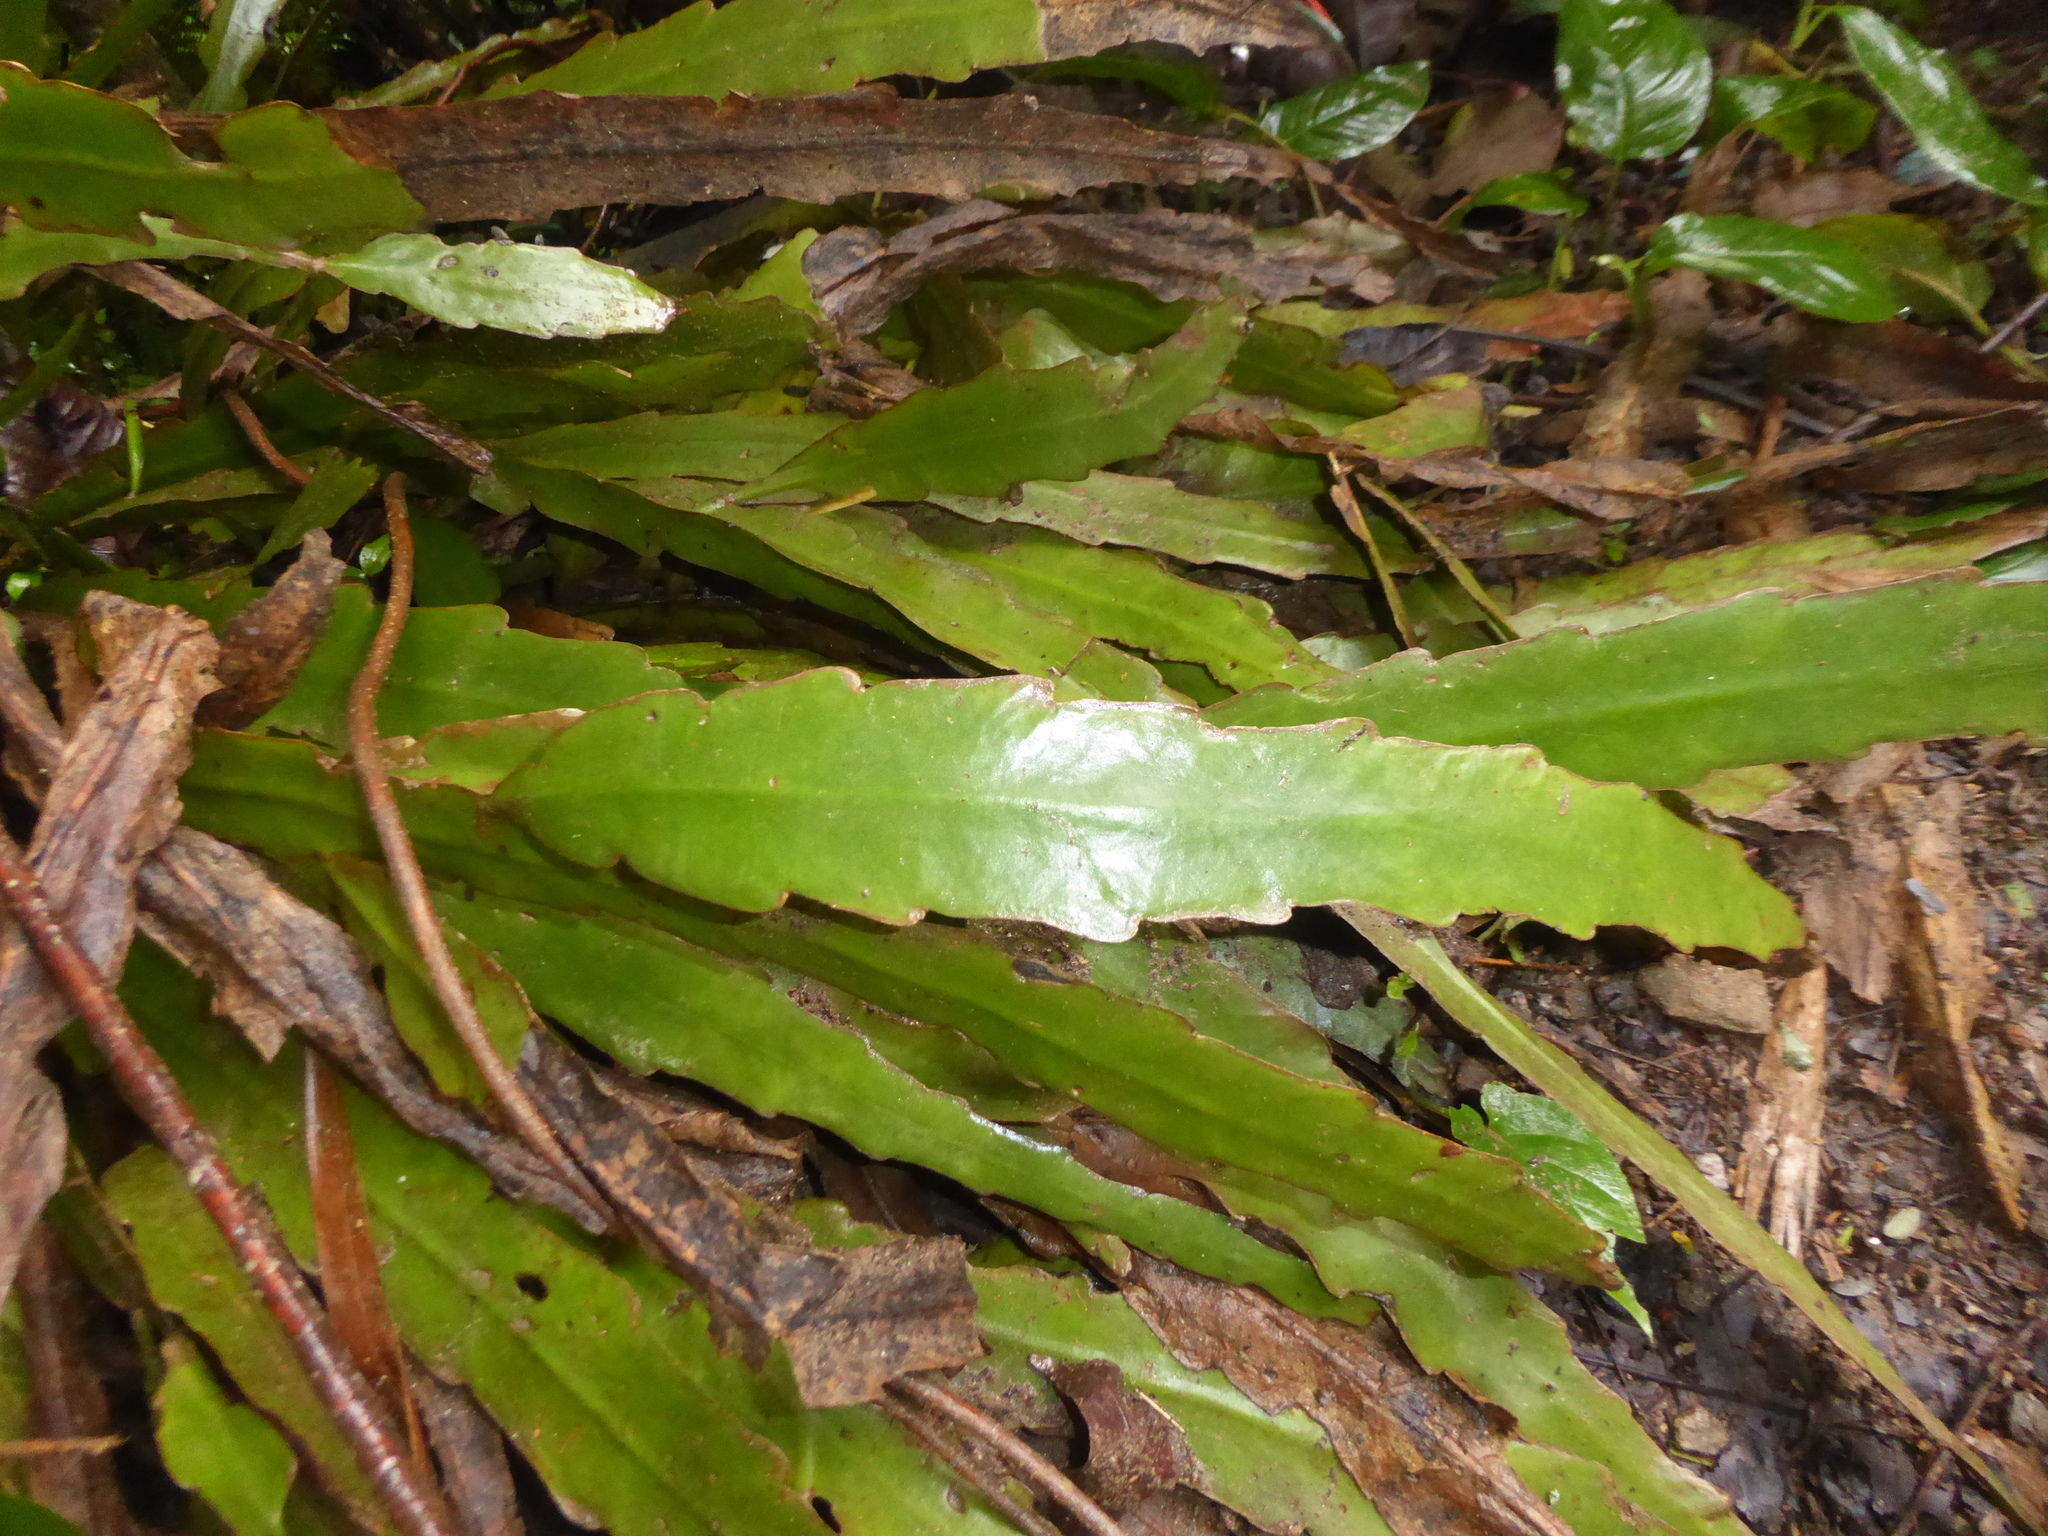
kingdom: Plantae
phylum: Tracheophyta
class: Magnoliopsida
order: Caryophyllales
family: Cactaceae
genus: Epiphyllum
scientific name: Epiphyllum phyllanthus
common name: Climbing cactus
